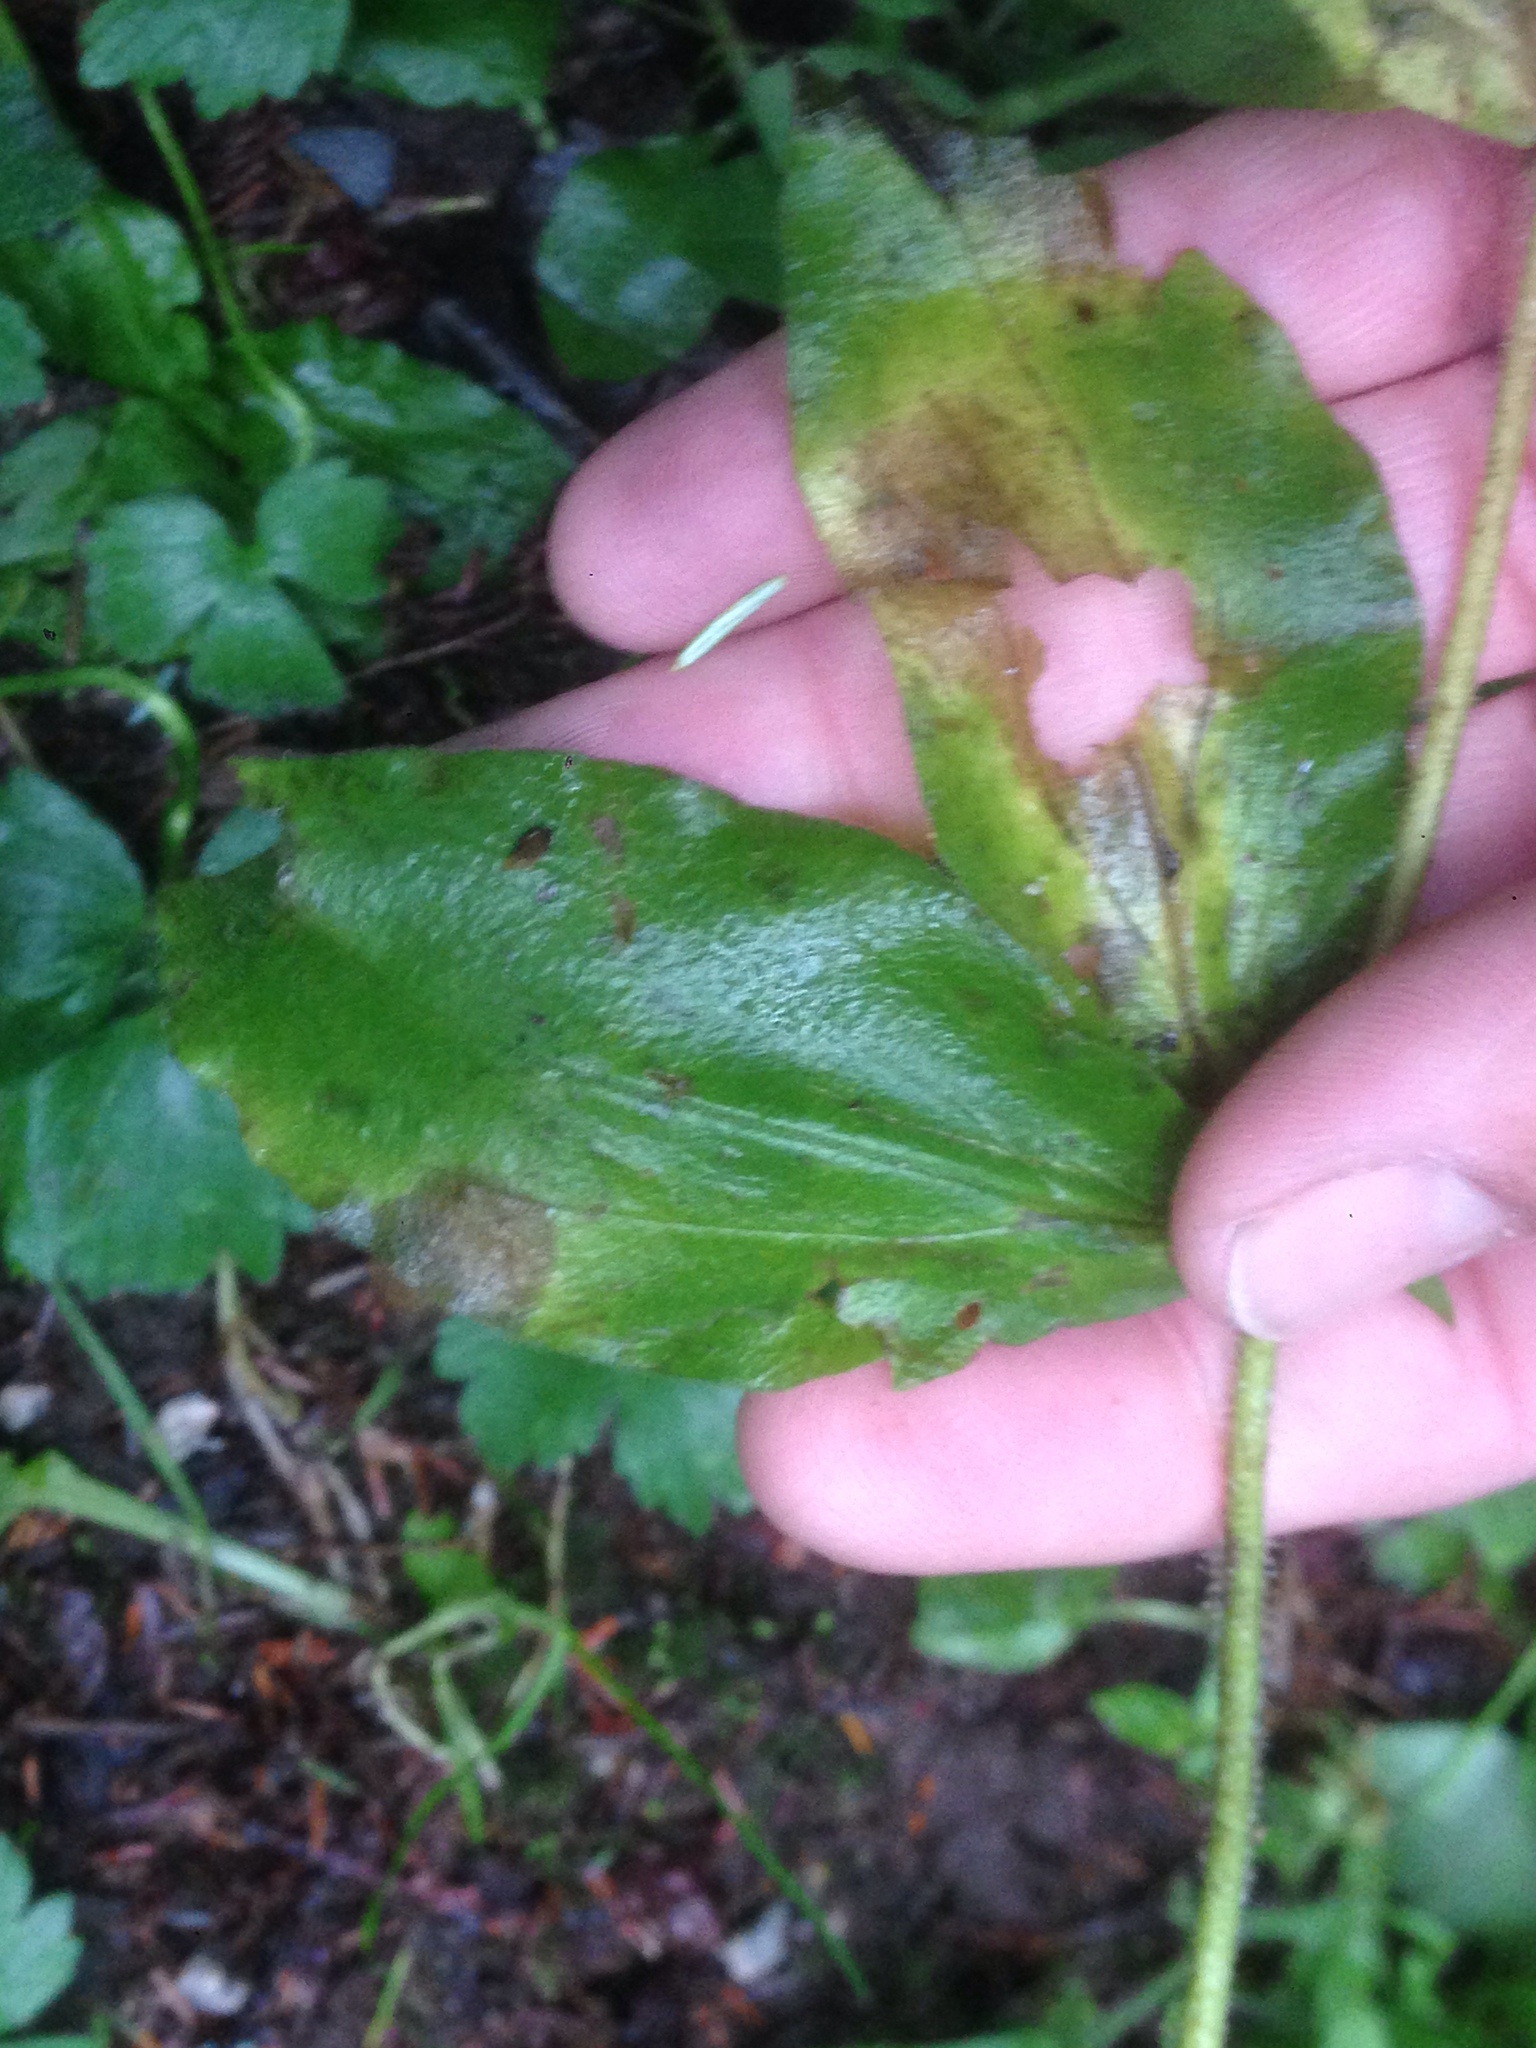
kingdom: Plantae
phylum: Tracheophyta
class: Magnoliopsida
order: Caryophyllales
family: Caryophyllaceae
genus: Silene
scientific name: Silene dioica
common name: Red campion
